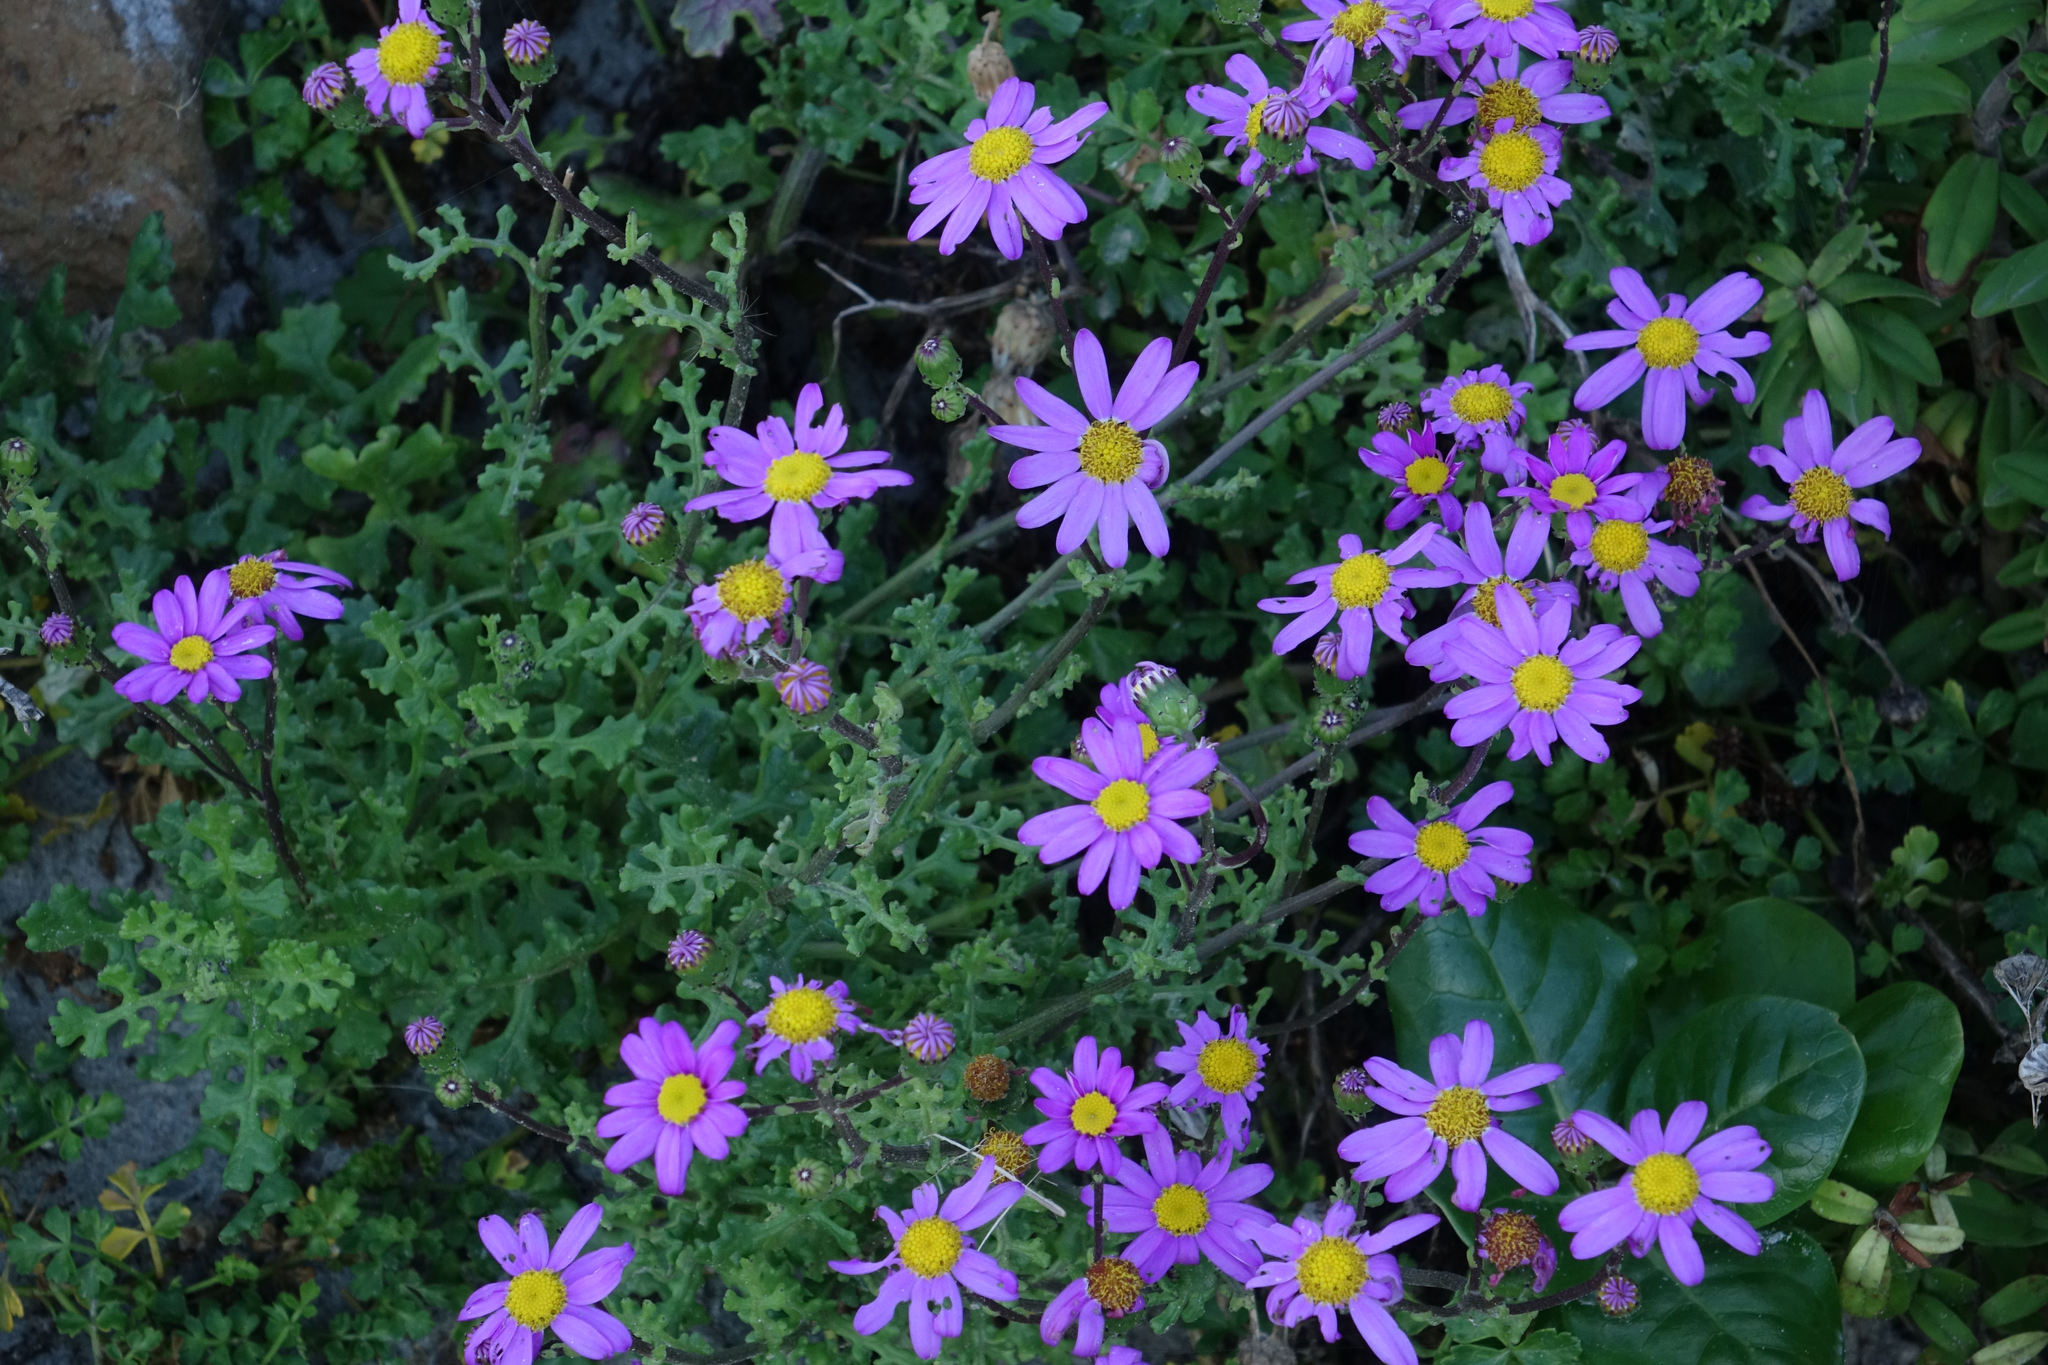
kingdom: Plantae
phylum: Tracheophyta
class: Magnoliopsida
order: Asterales
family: Asteraceae
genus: Senecio
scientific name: Senecio elegans
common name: Purple groundsel
